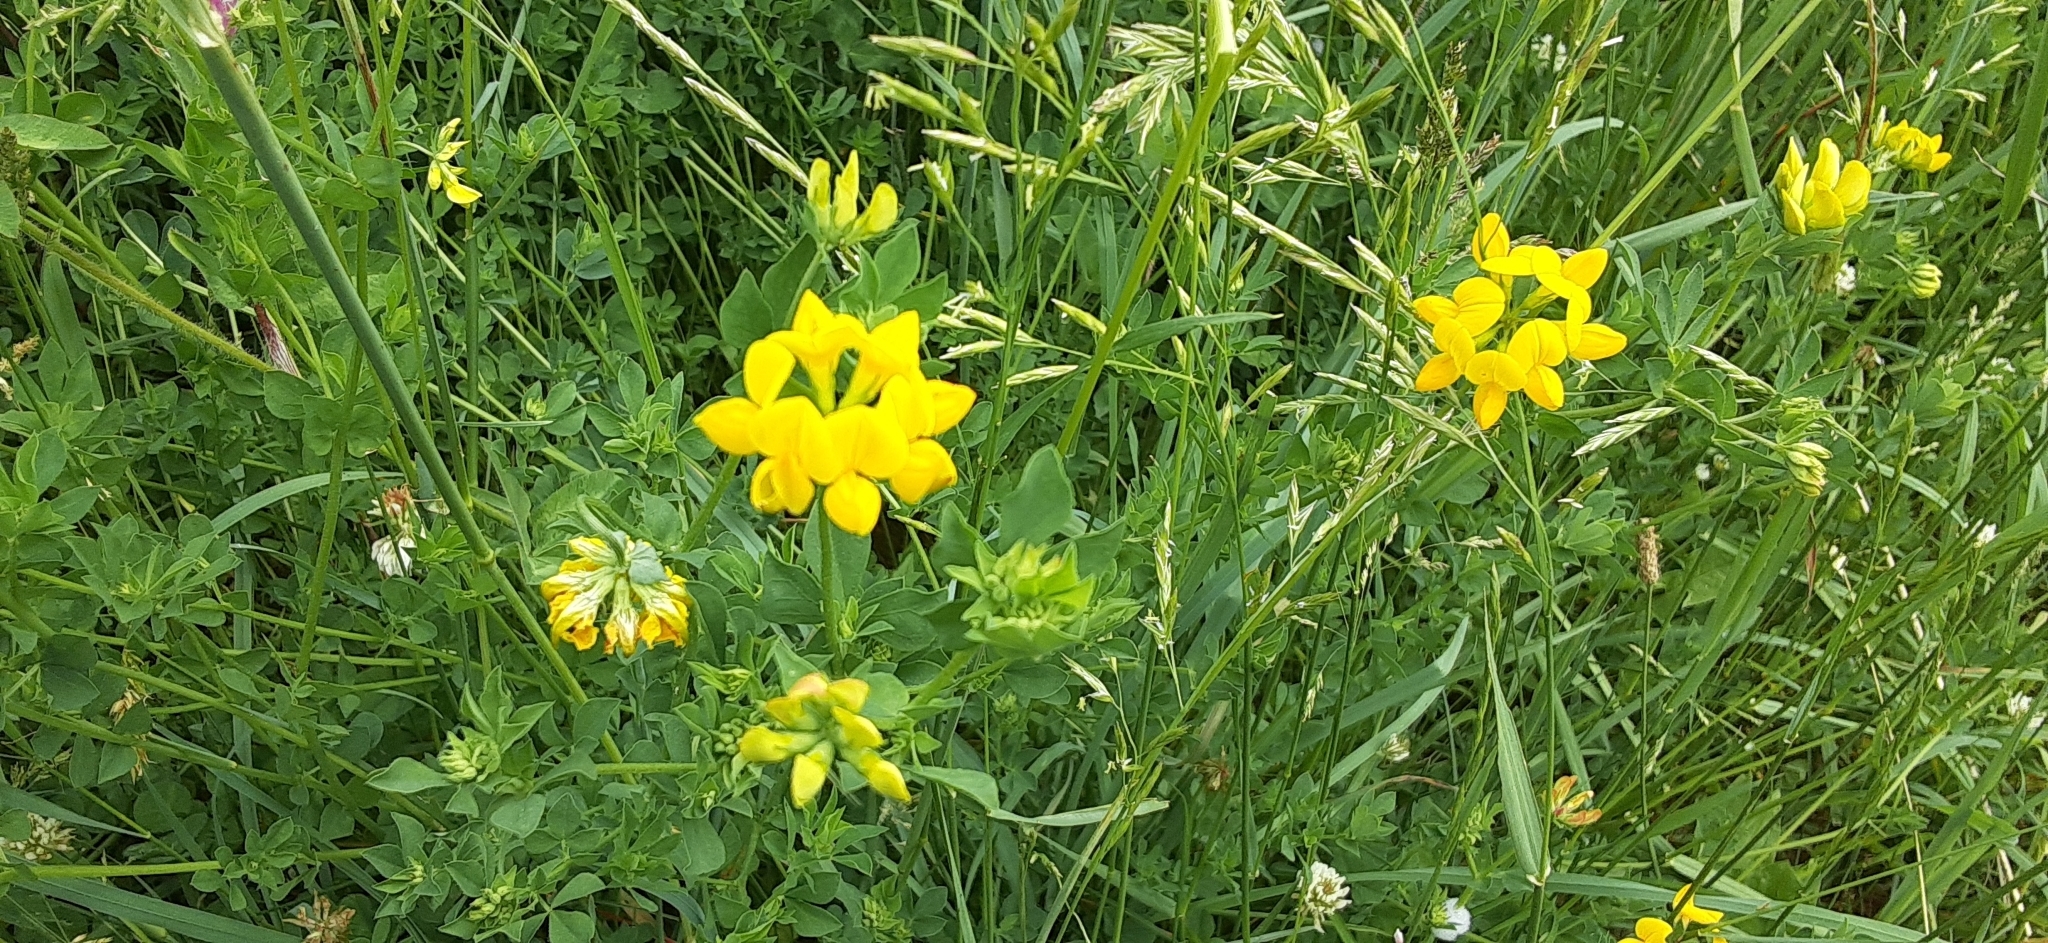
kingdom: Plantae
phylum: Tracheophyta
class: Magnoliopsida
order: Fabales
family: Fabaceae
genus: Lotus
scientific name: Lotus corniculatus
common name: Common bird's-foot-trefoil
